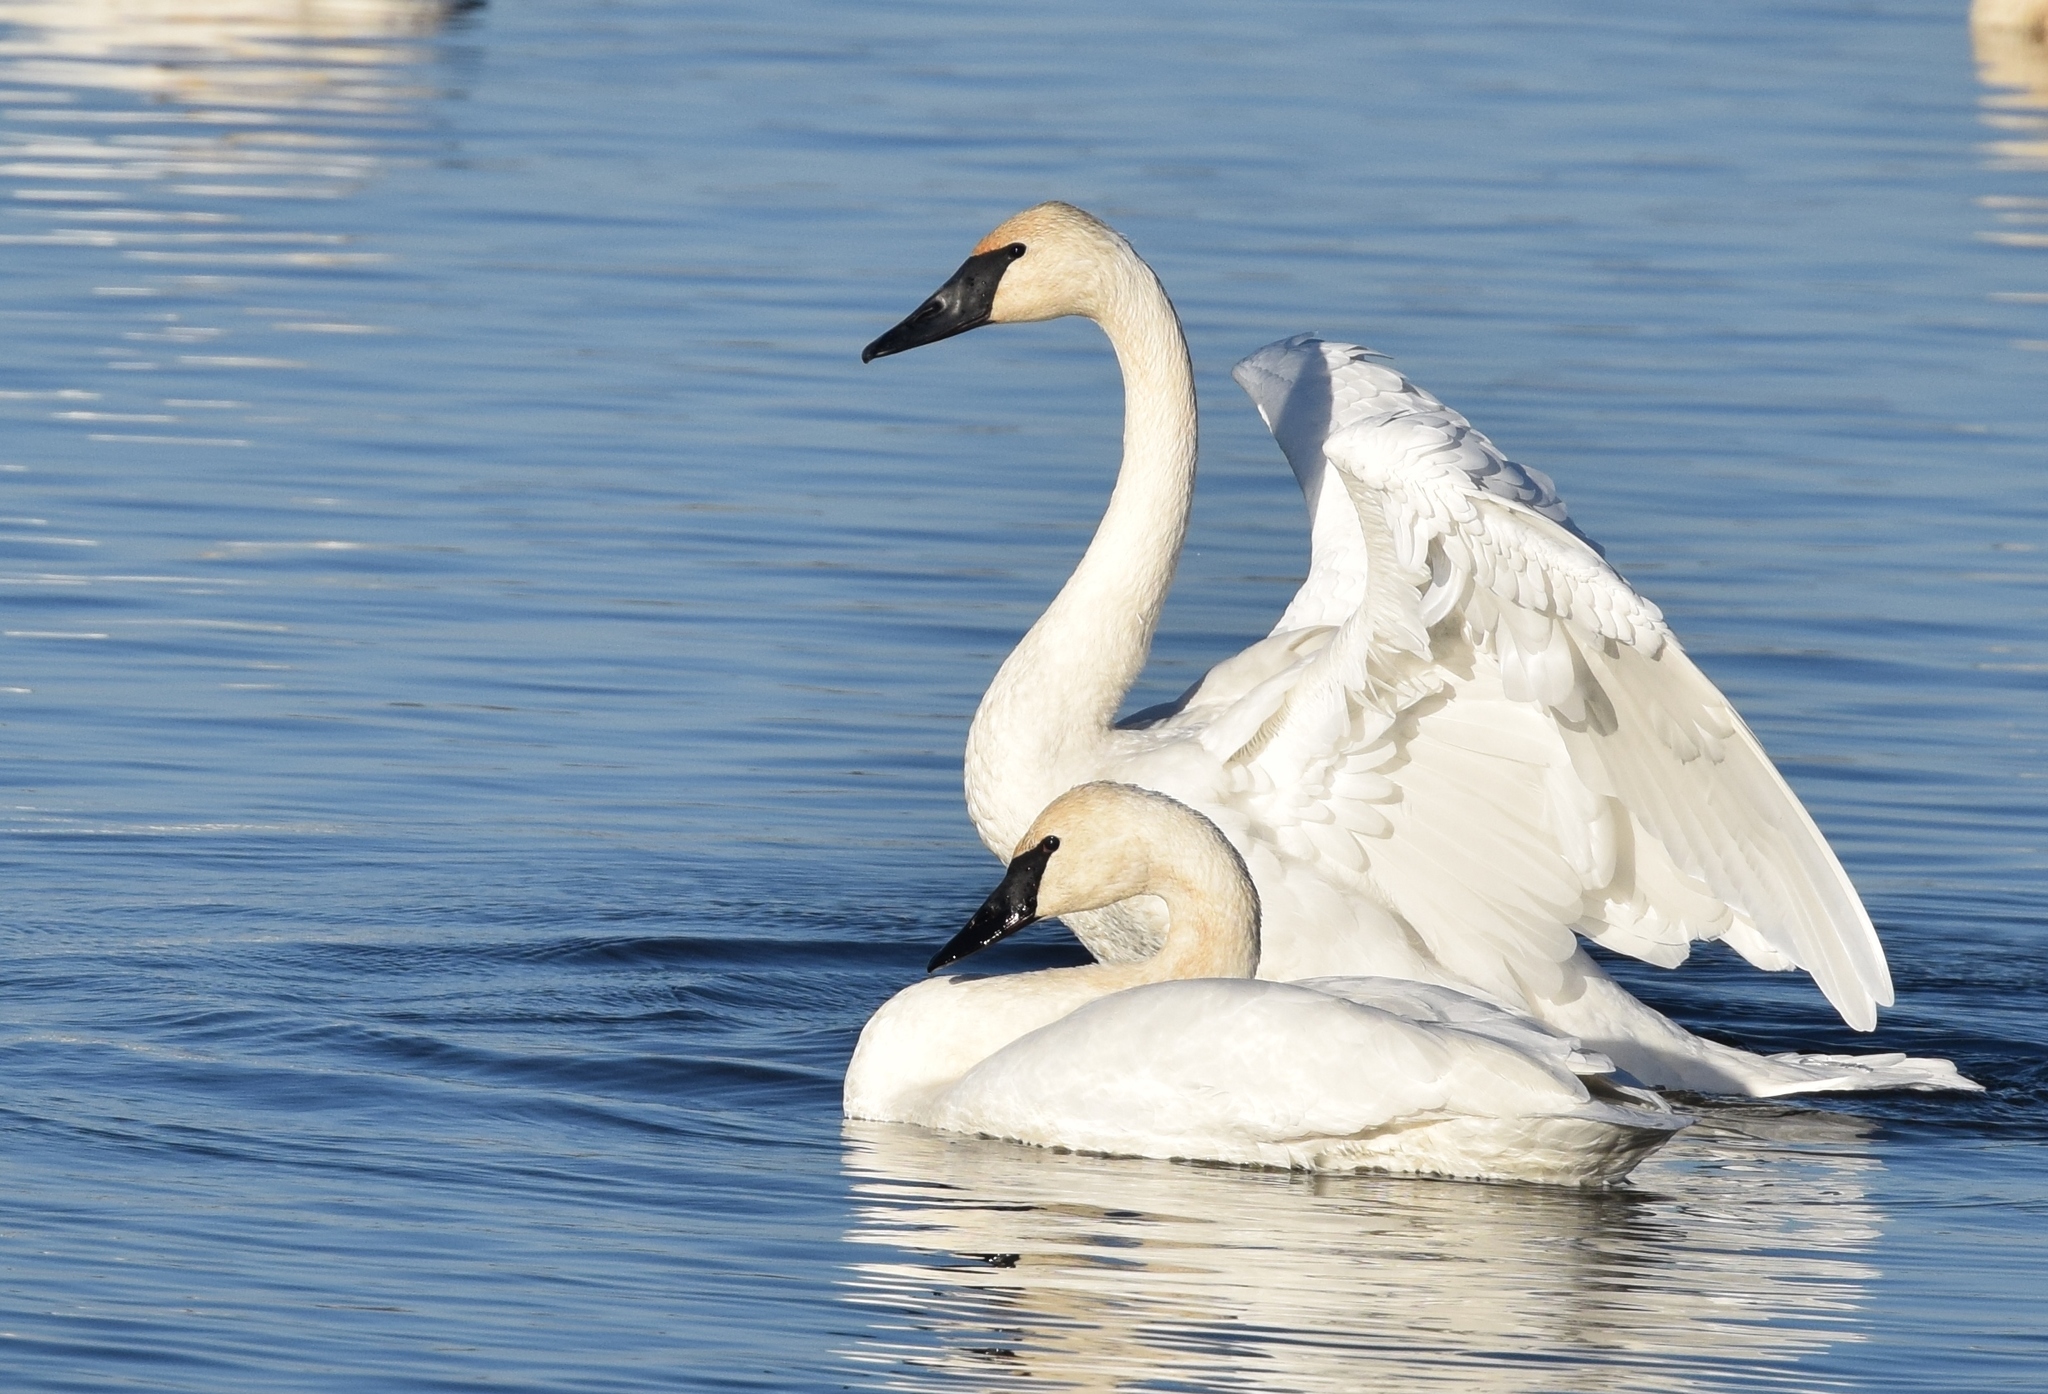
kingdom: Animalia
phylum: Chordata
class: Aves
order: Anseriformes
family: Anatidae
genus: Cygnus
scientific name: Cygnus buccinator
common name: Trumpeter swan
